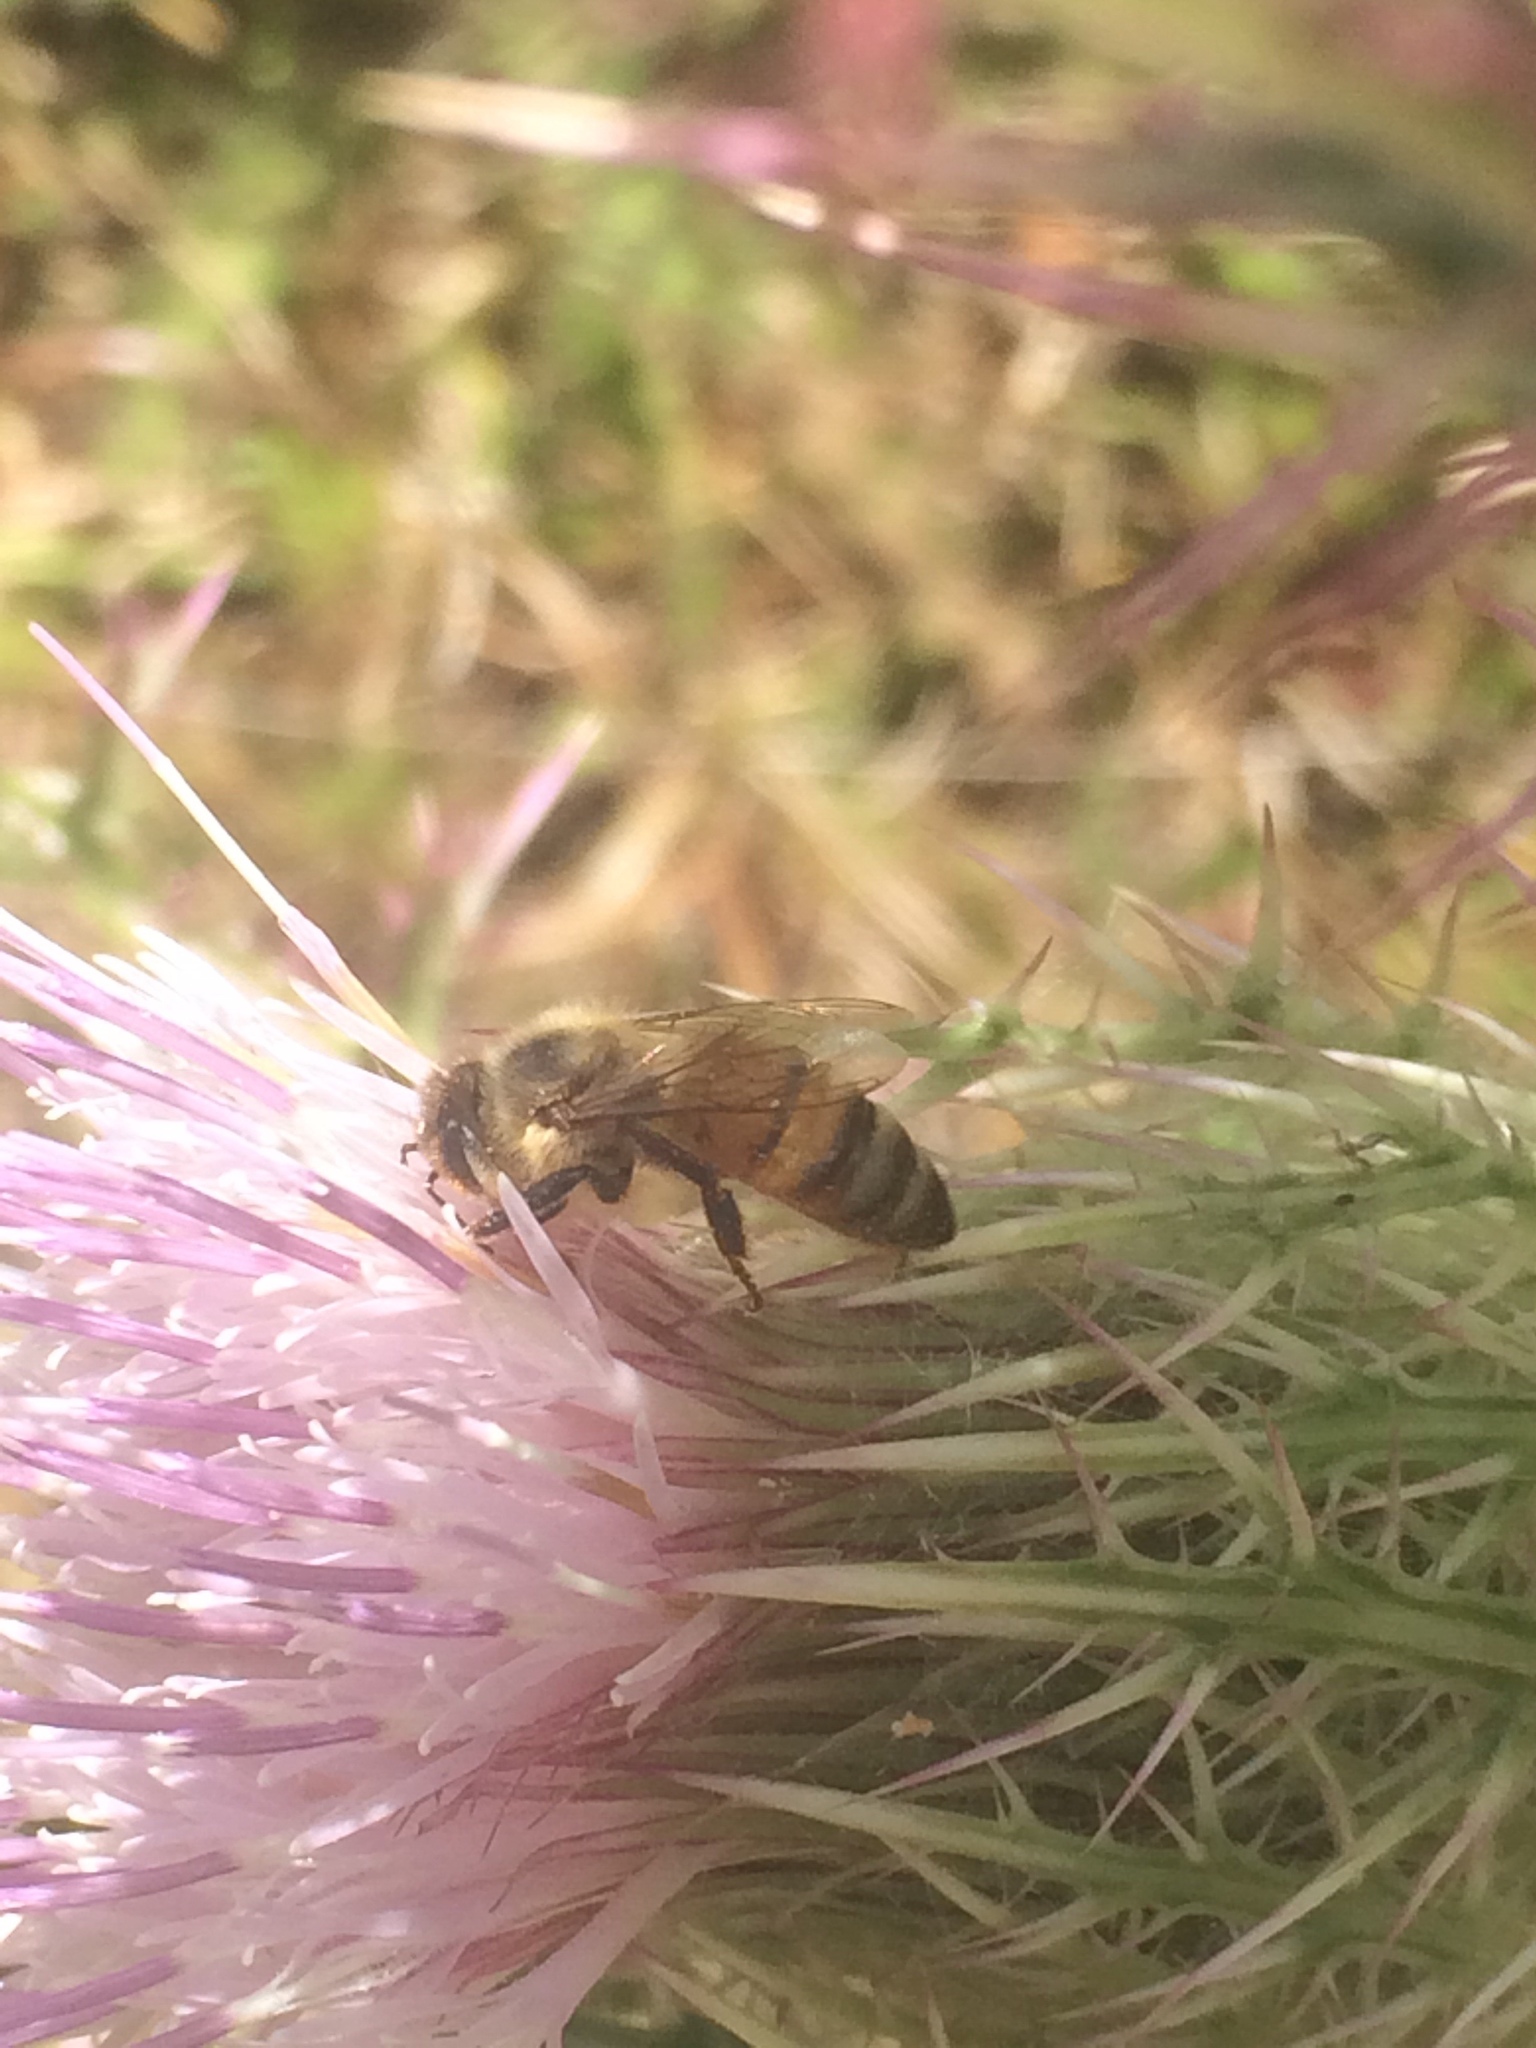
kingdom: Animalia
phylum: Arthropoda
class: Insecta
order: Hymenoptera
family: Apidae
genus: Apis
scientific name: Apis mellifera
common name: Honey bee
